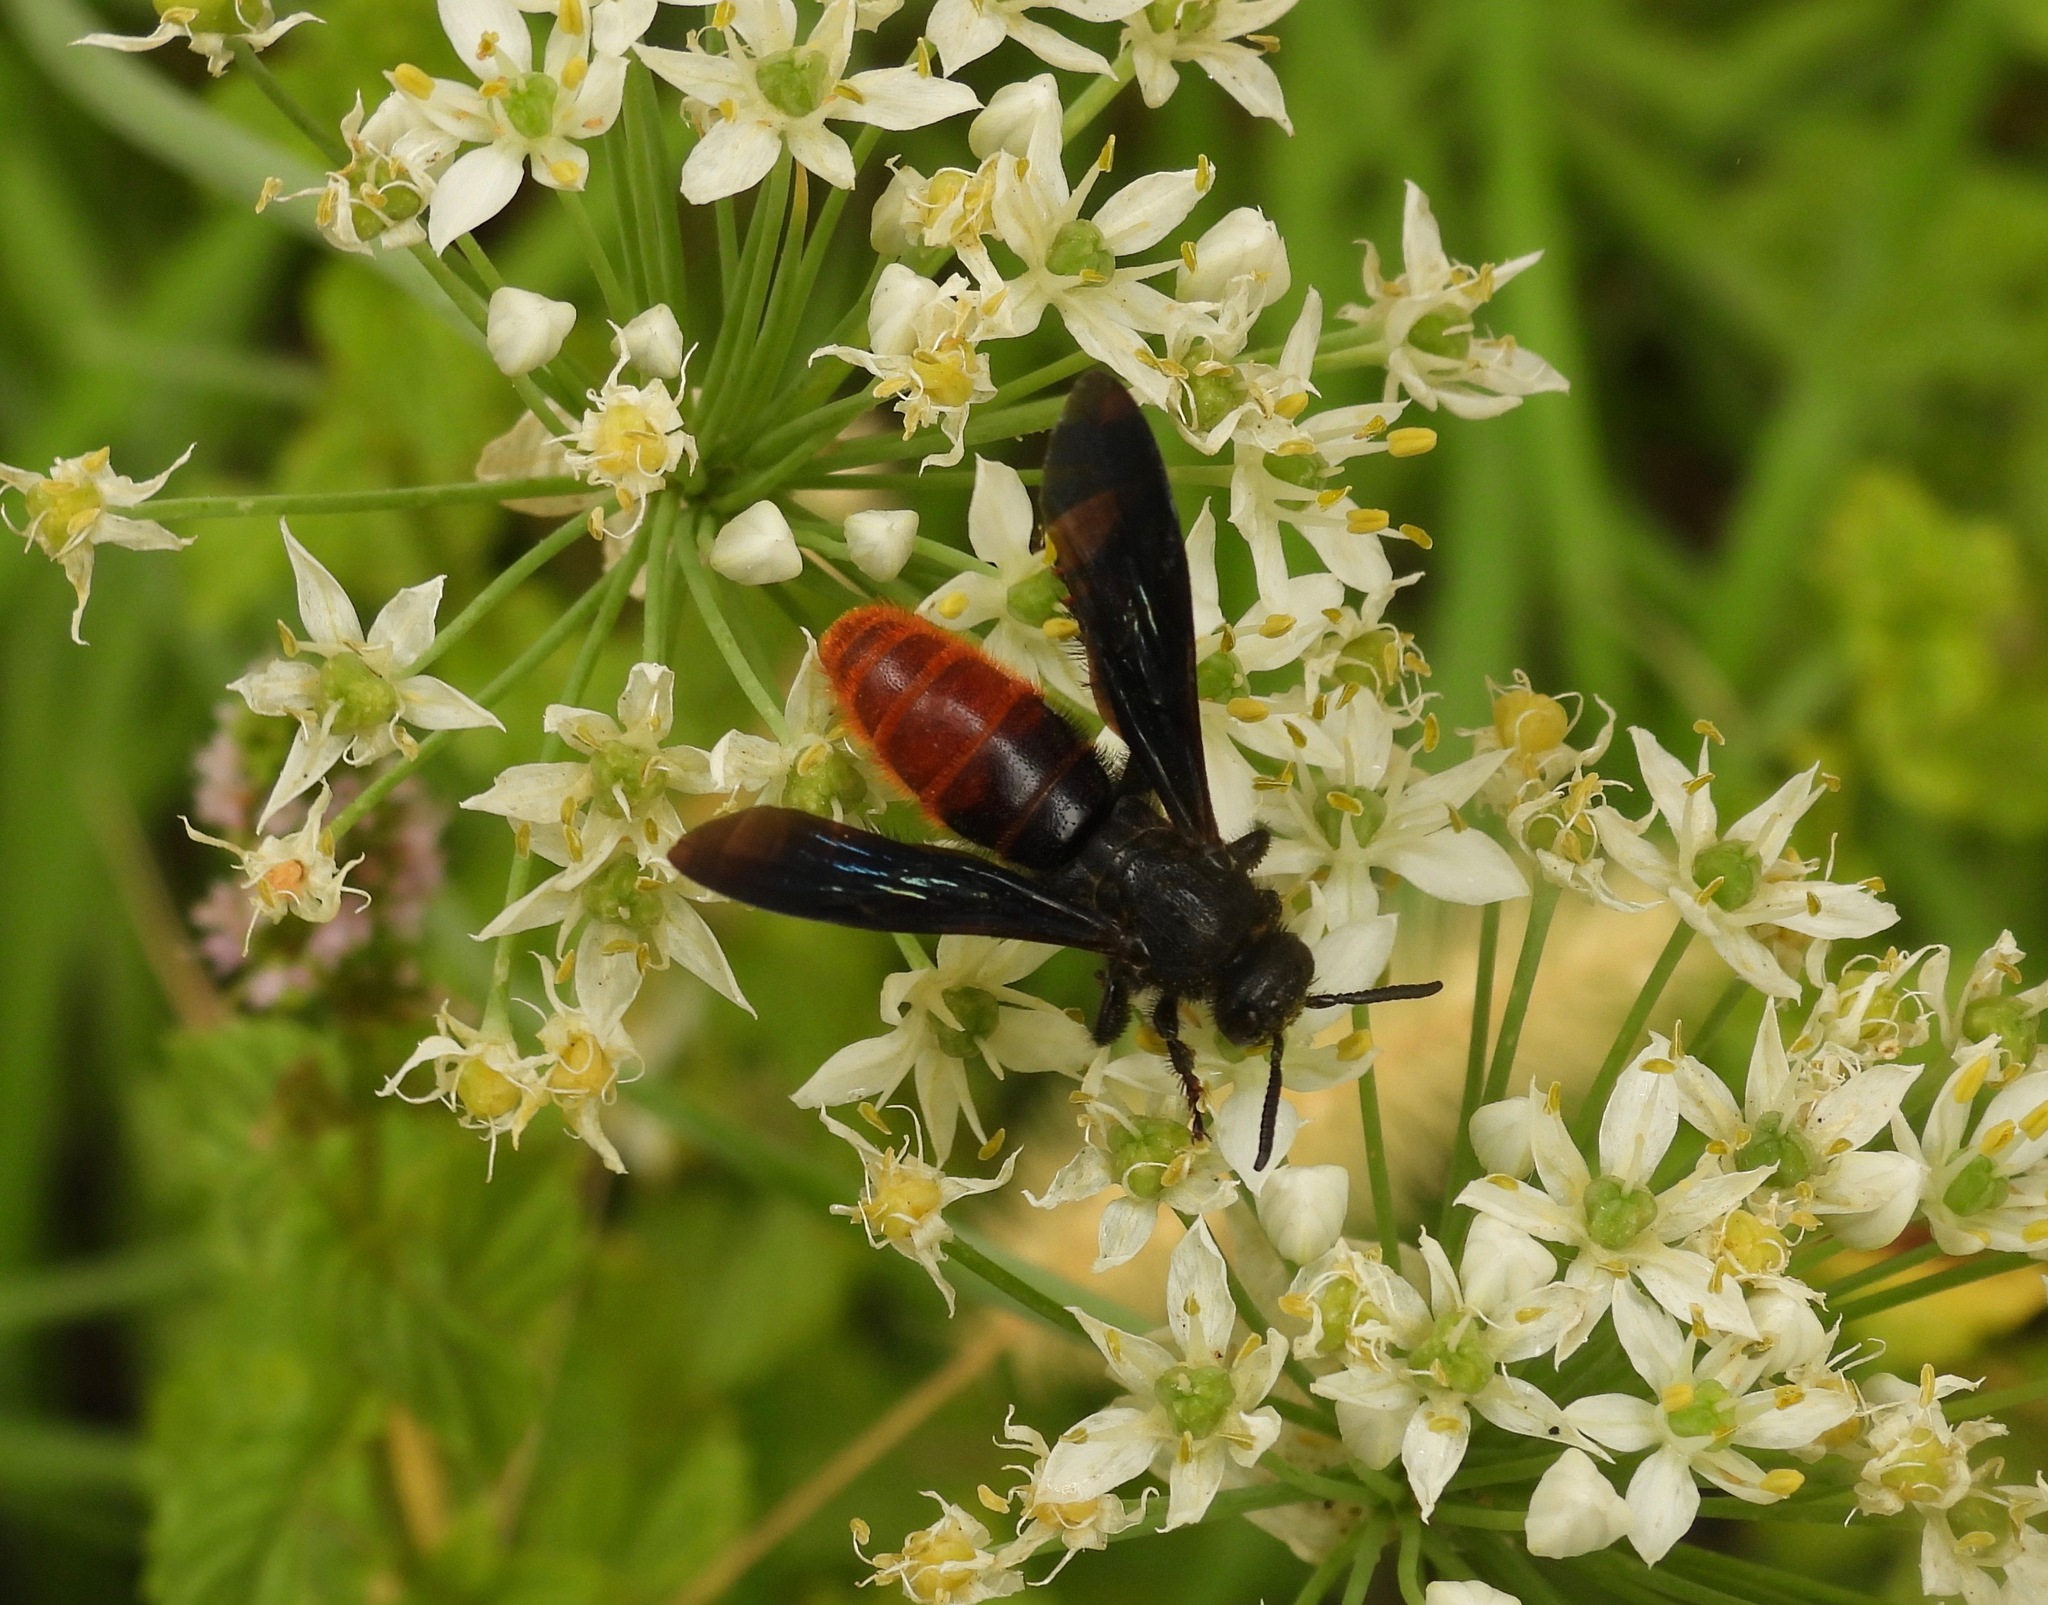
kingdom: Animalia
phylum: Arthropoda
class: Insecta
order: Hymenoptera
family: Scoliidae
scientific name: Scoliidae
